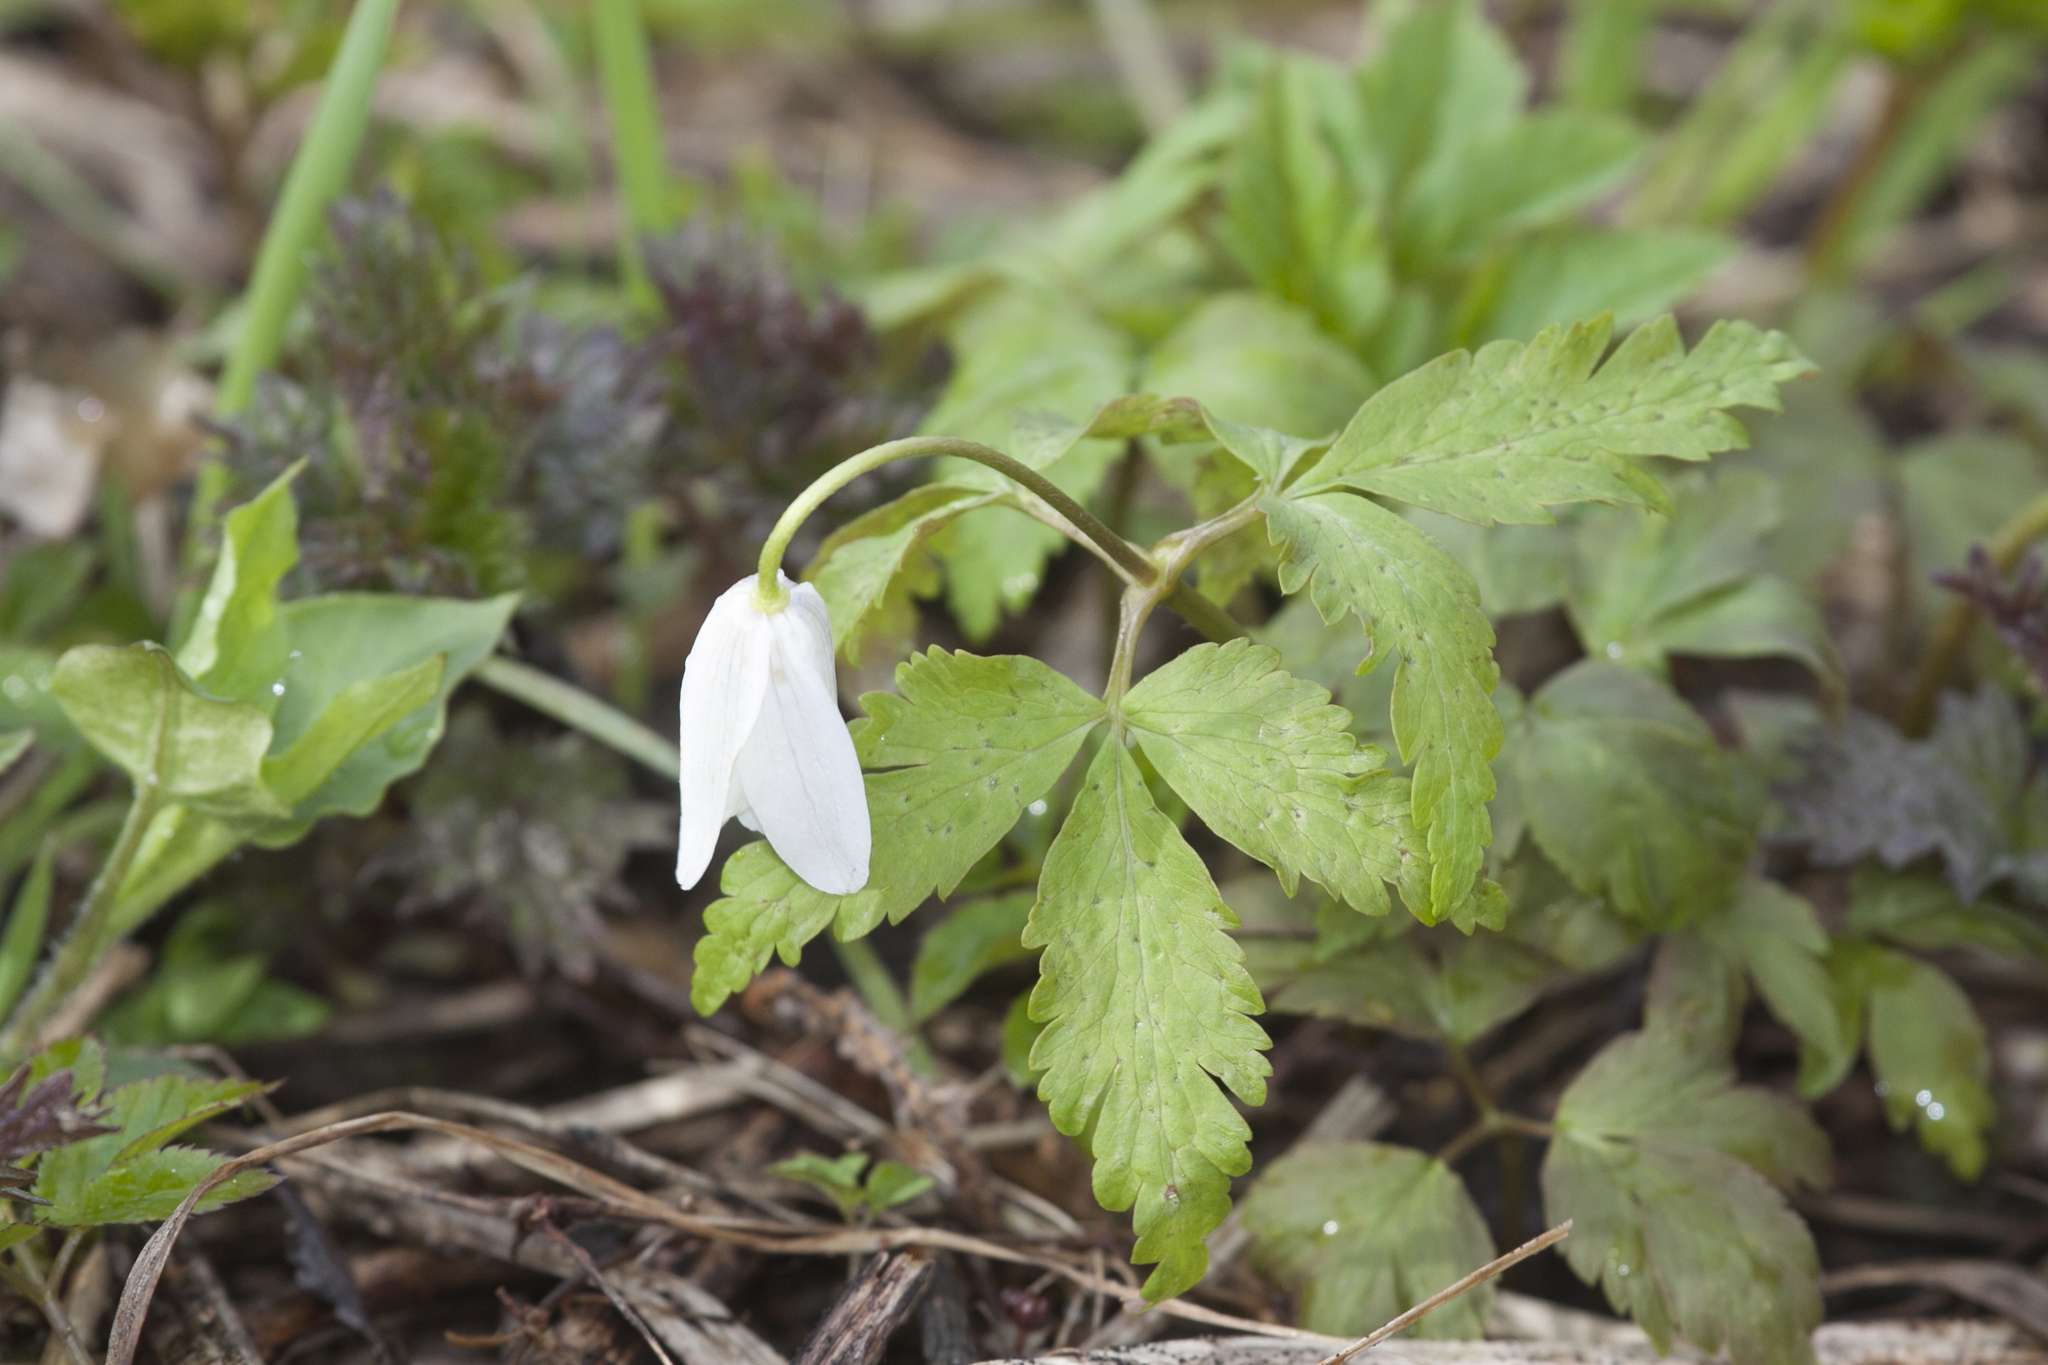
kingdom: Plantae
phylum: Tracheophyta
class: Magnoliopsida
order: Ranunculales
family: Ranunculaceae
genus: Anemone
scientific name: Anemone altaica
